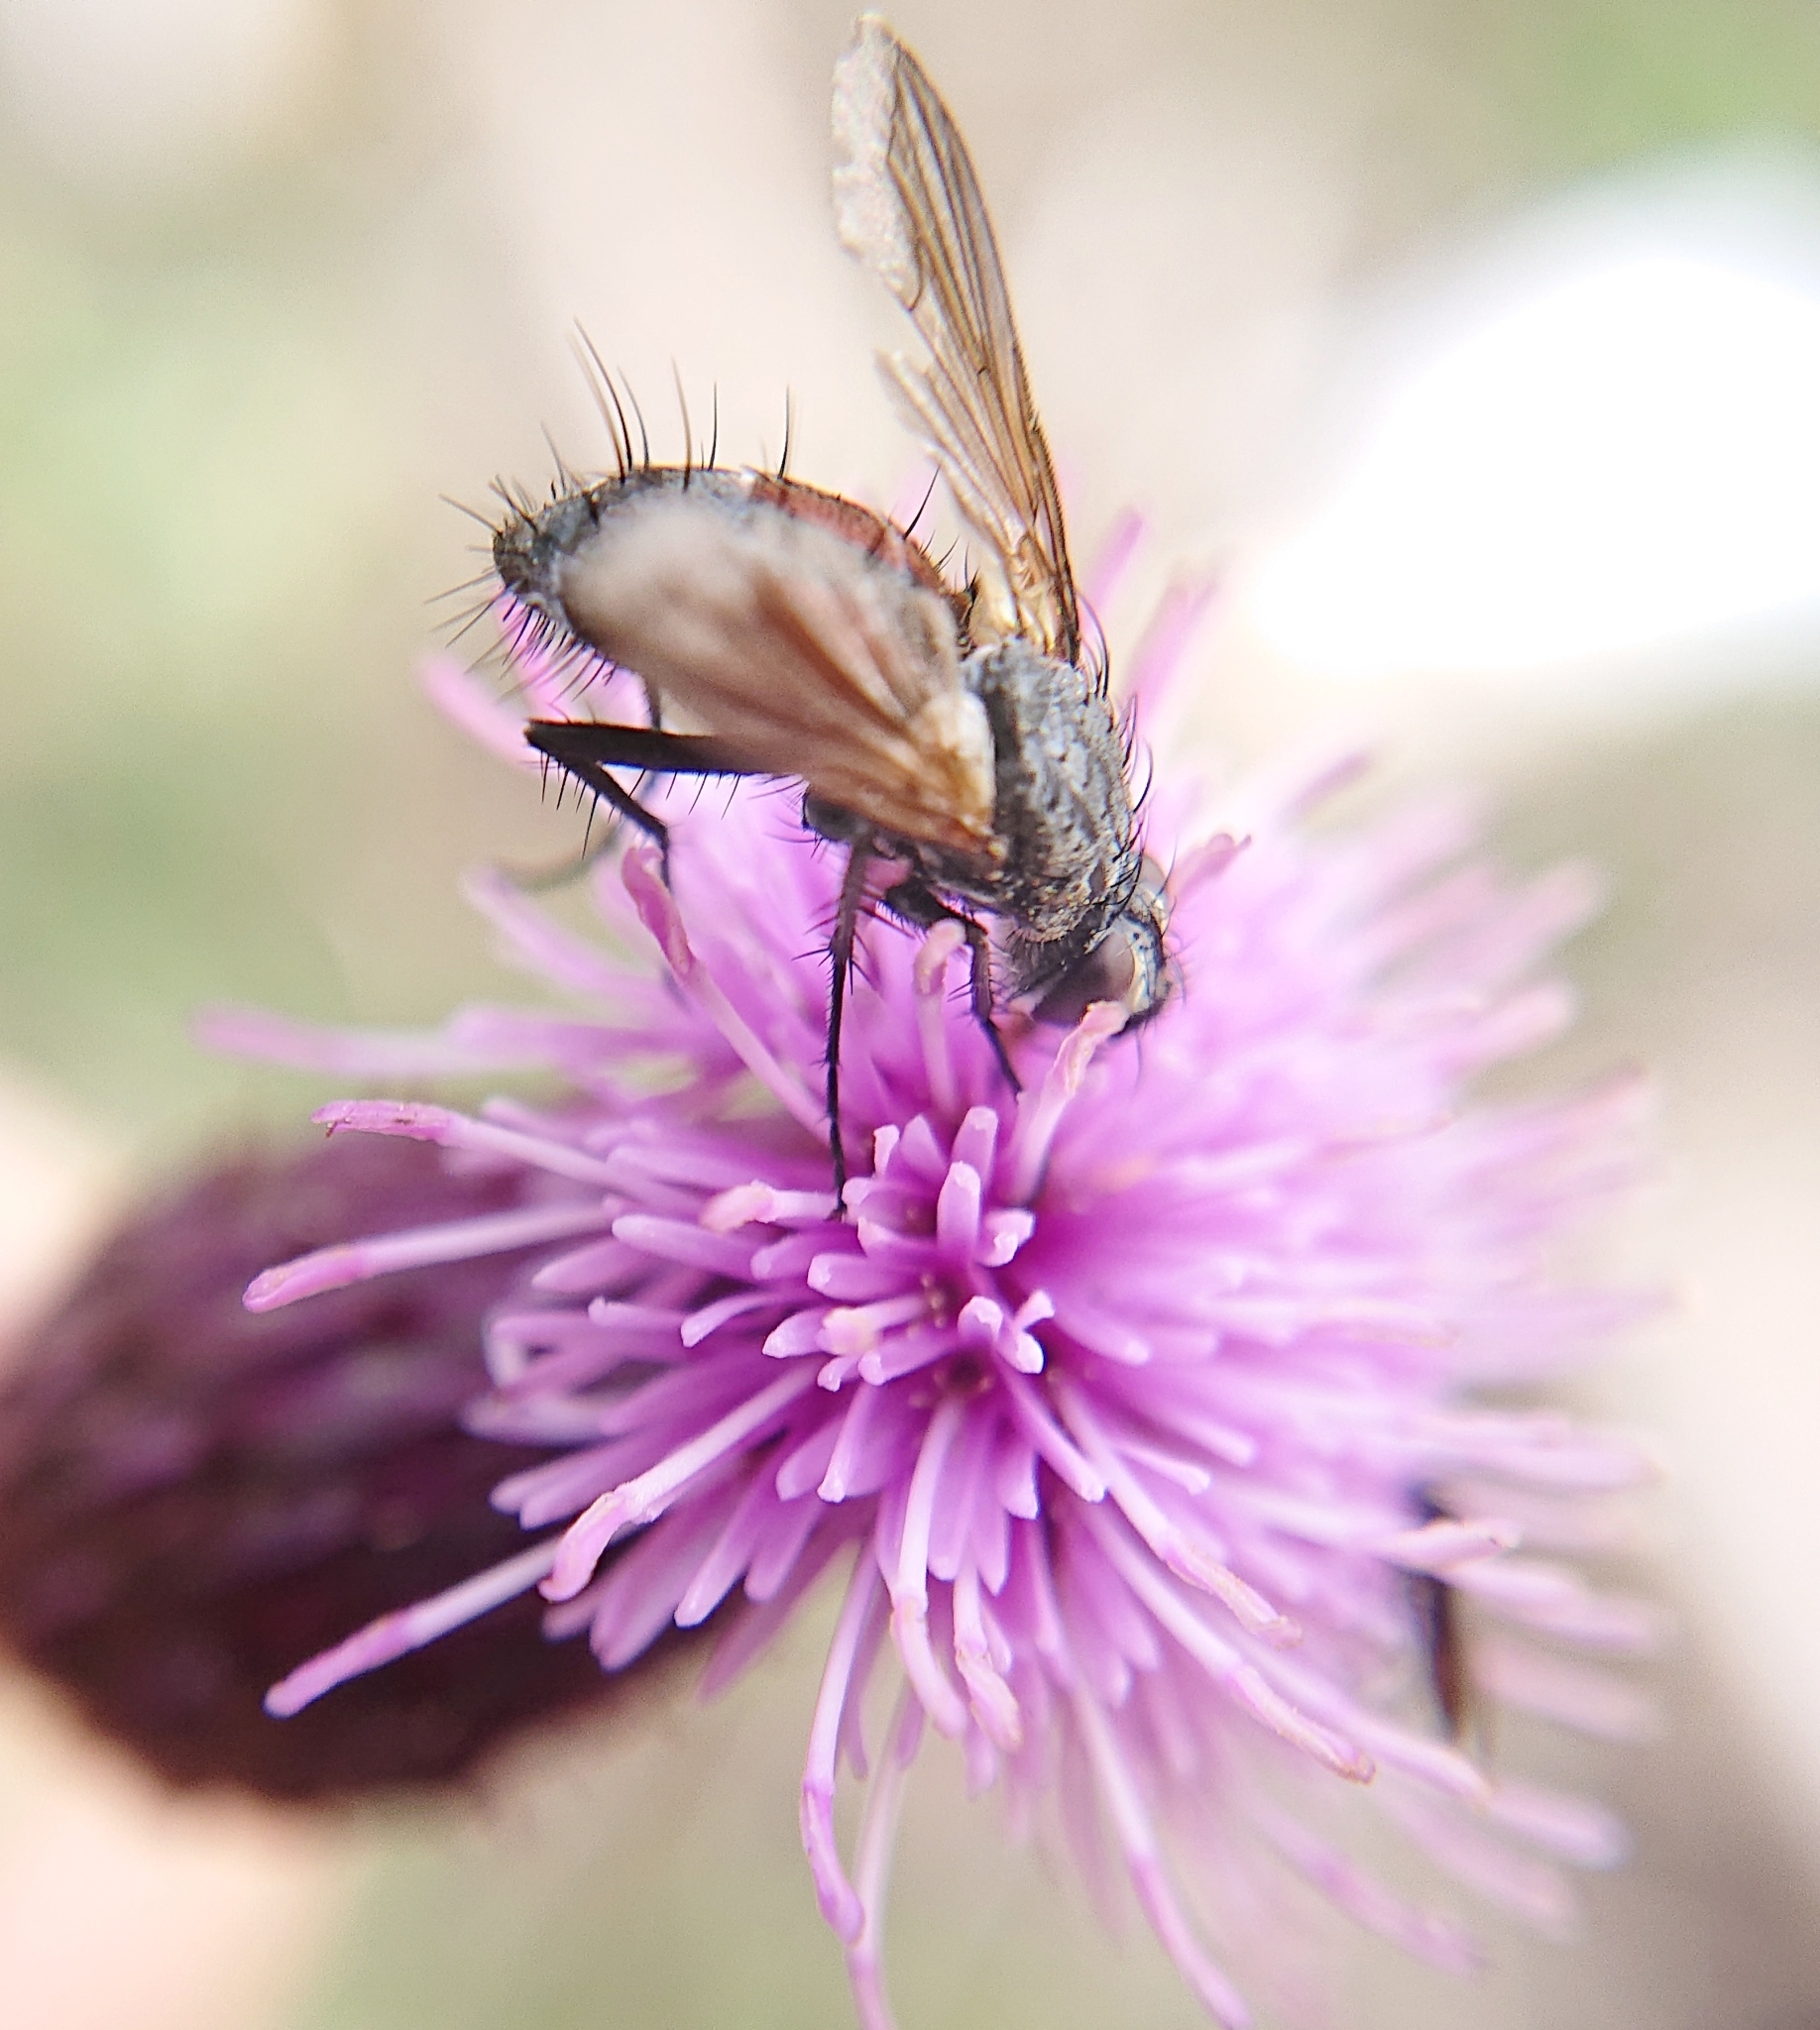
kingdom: Animalia
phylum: Arthropoda
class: Insecta
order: Diptera
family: Tachinidae
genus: Eriothrix
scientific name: Eriothrix rufomaculatus
